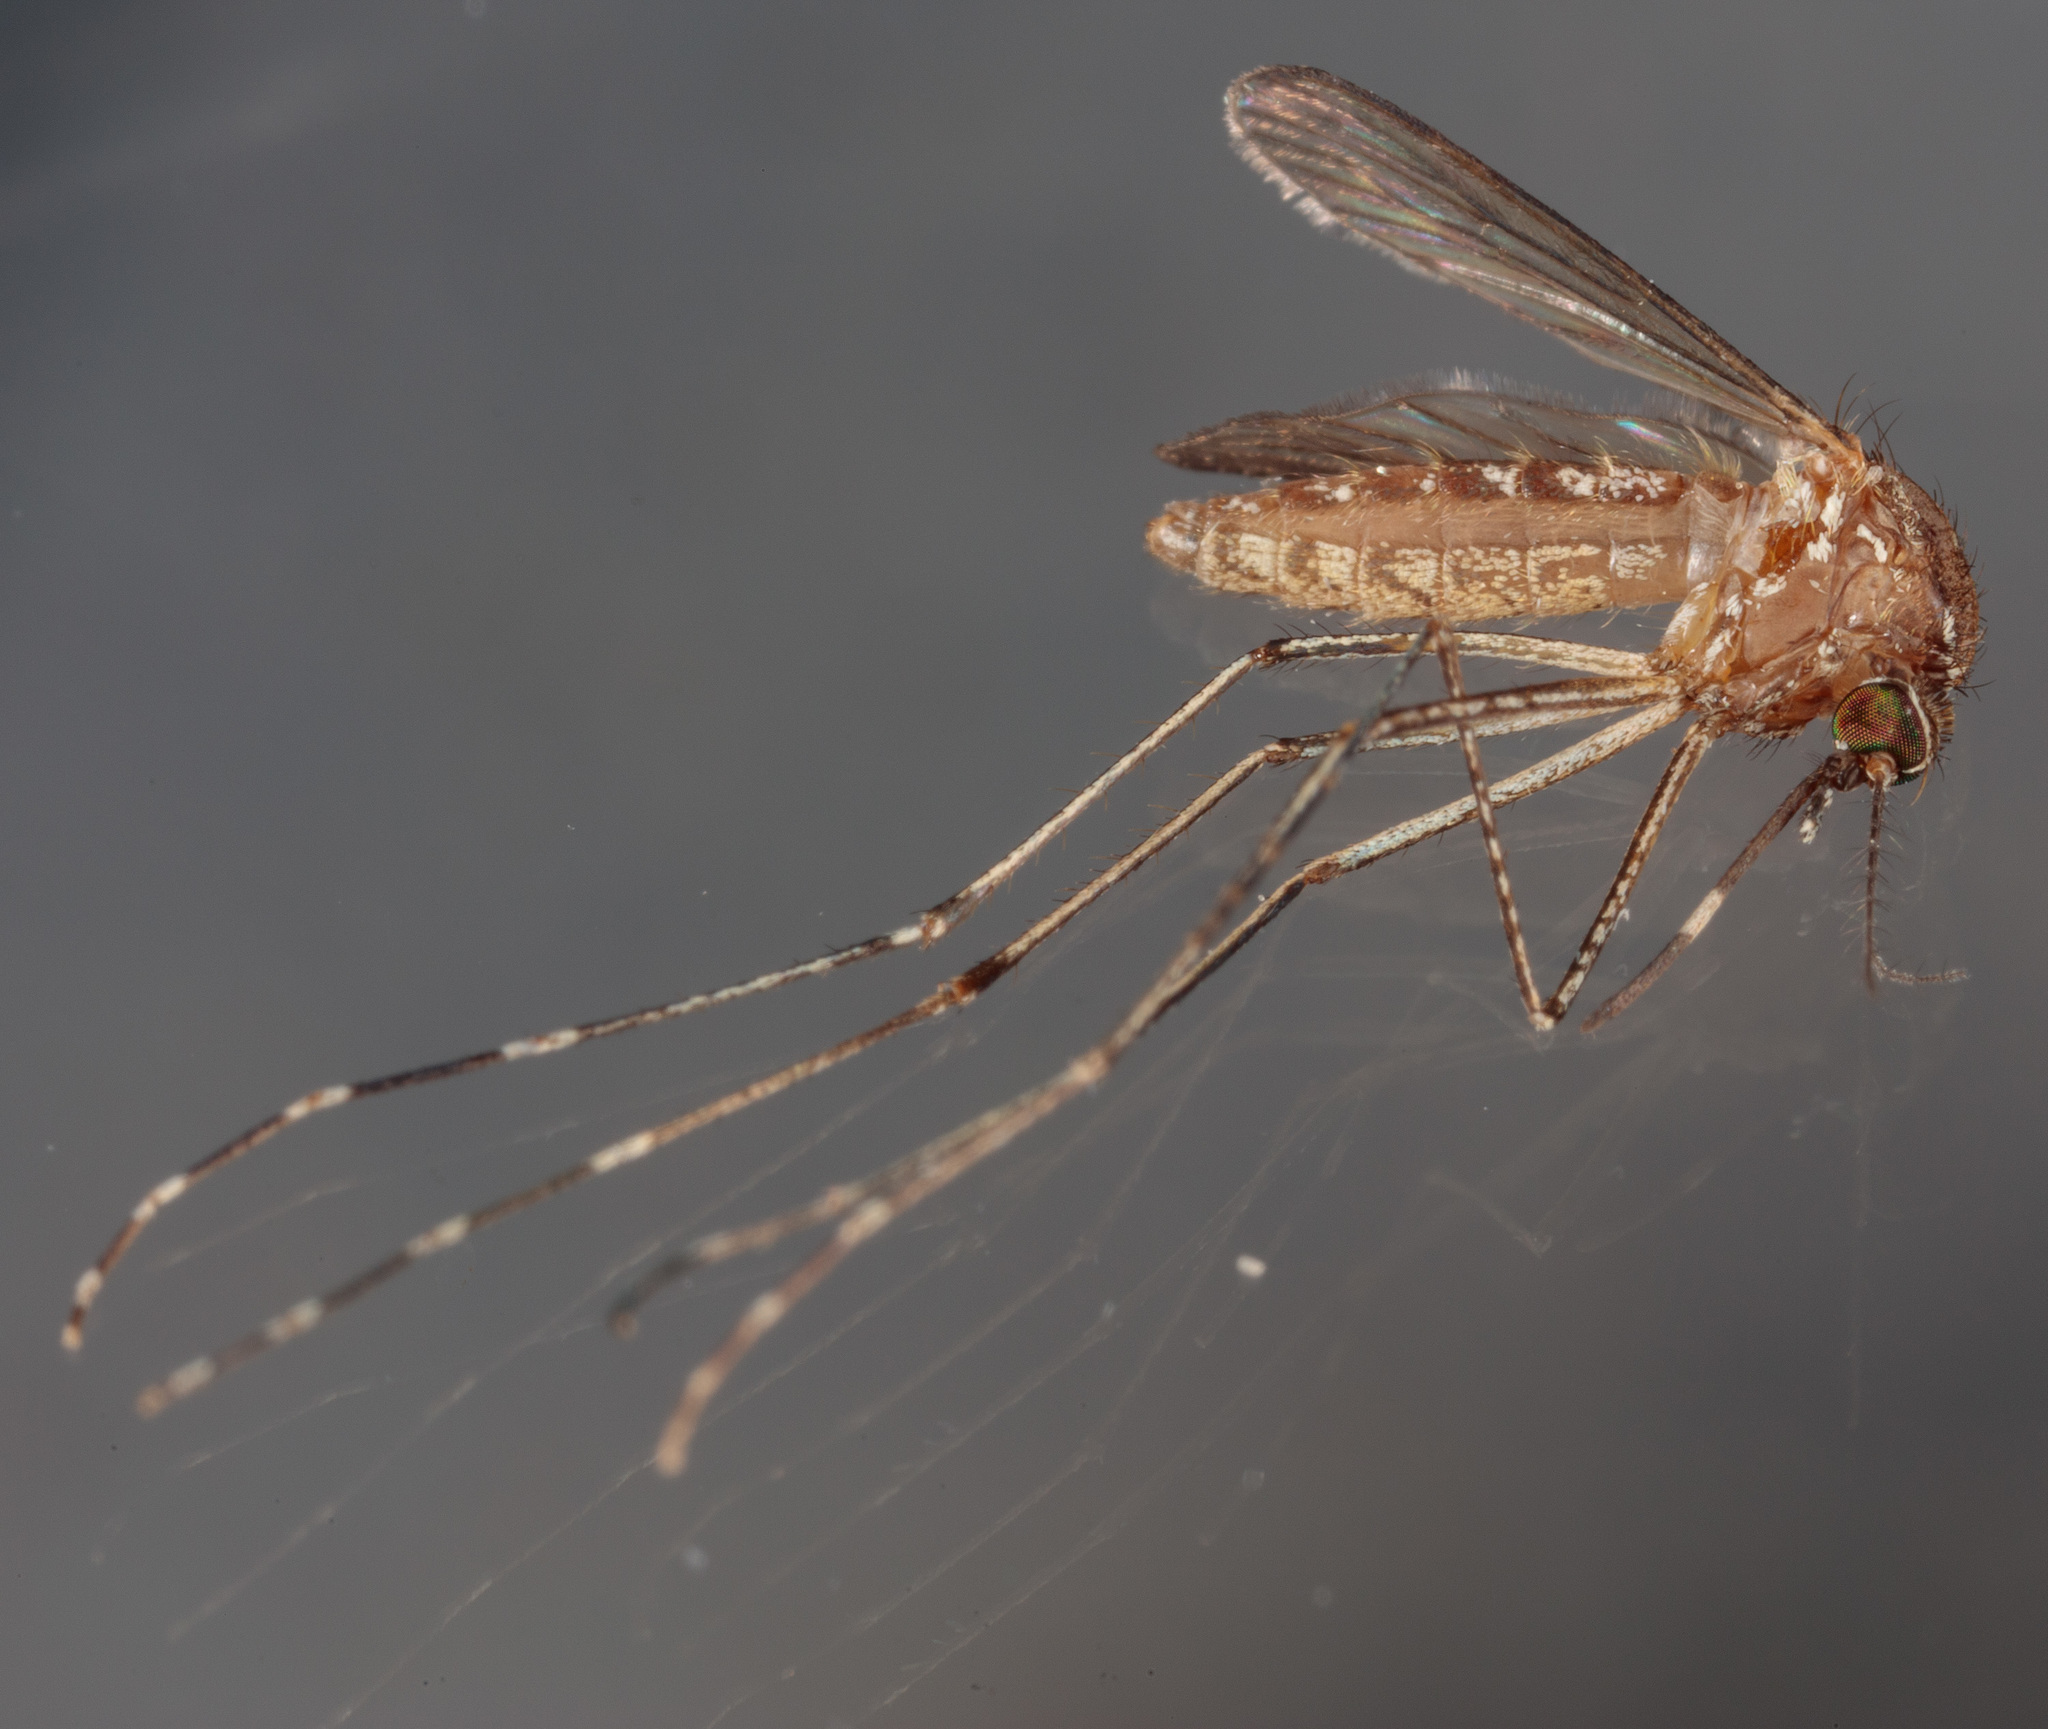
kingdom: Animalia
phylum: Arthropoda
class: Insecta
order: Diptera
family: Culicidae
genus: Culex
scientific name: Culex tarsalis
